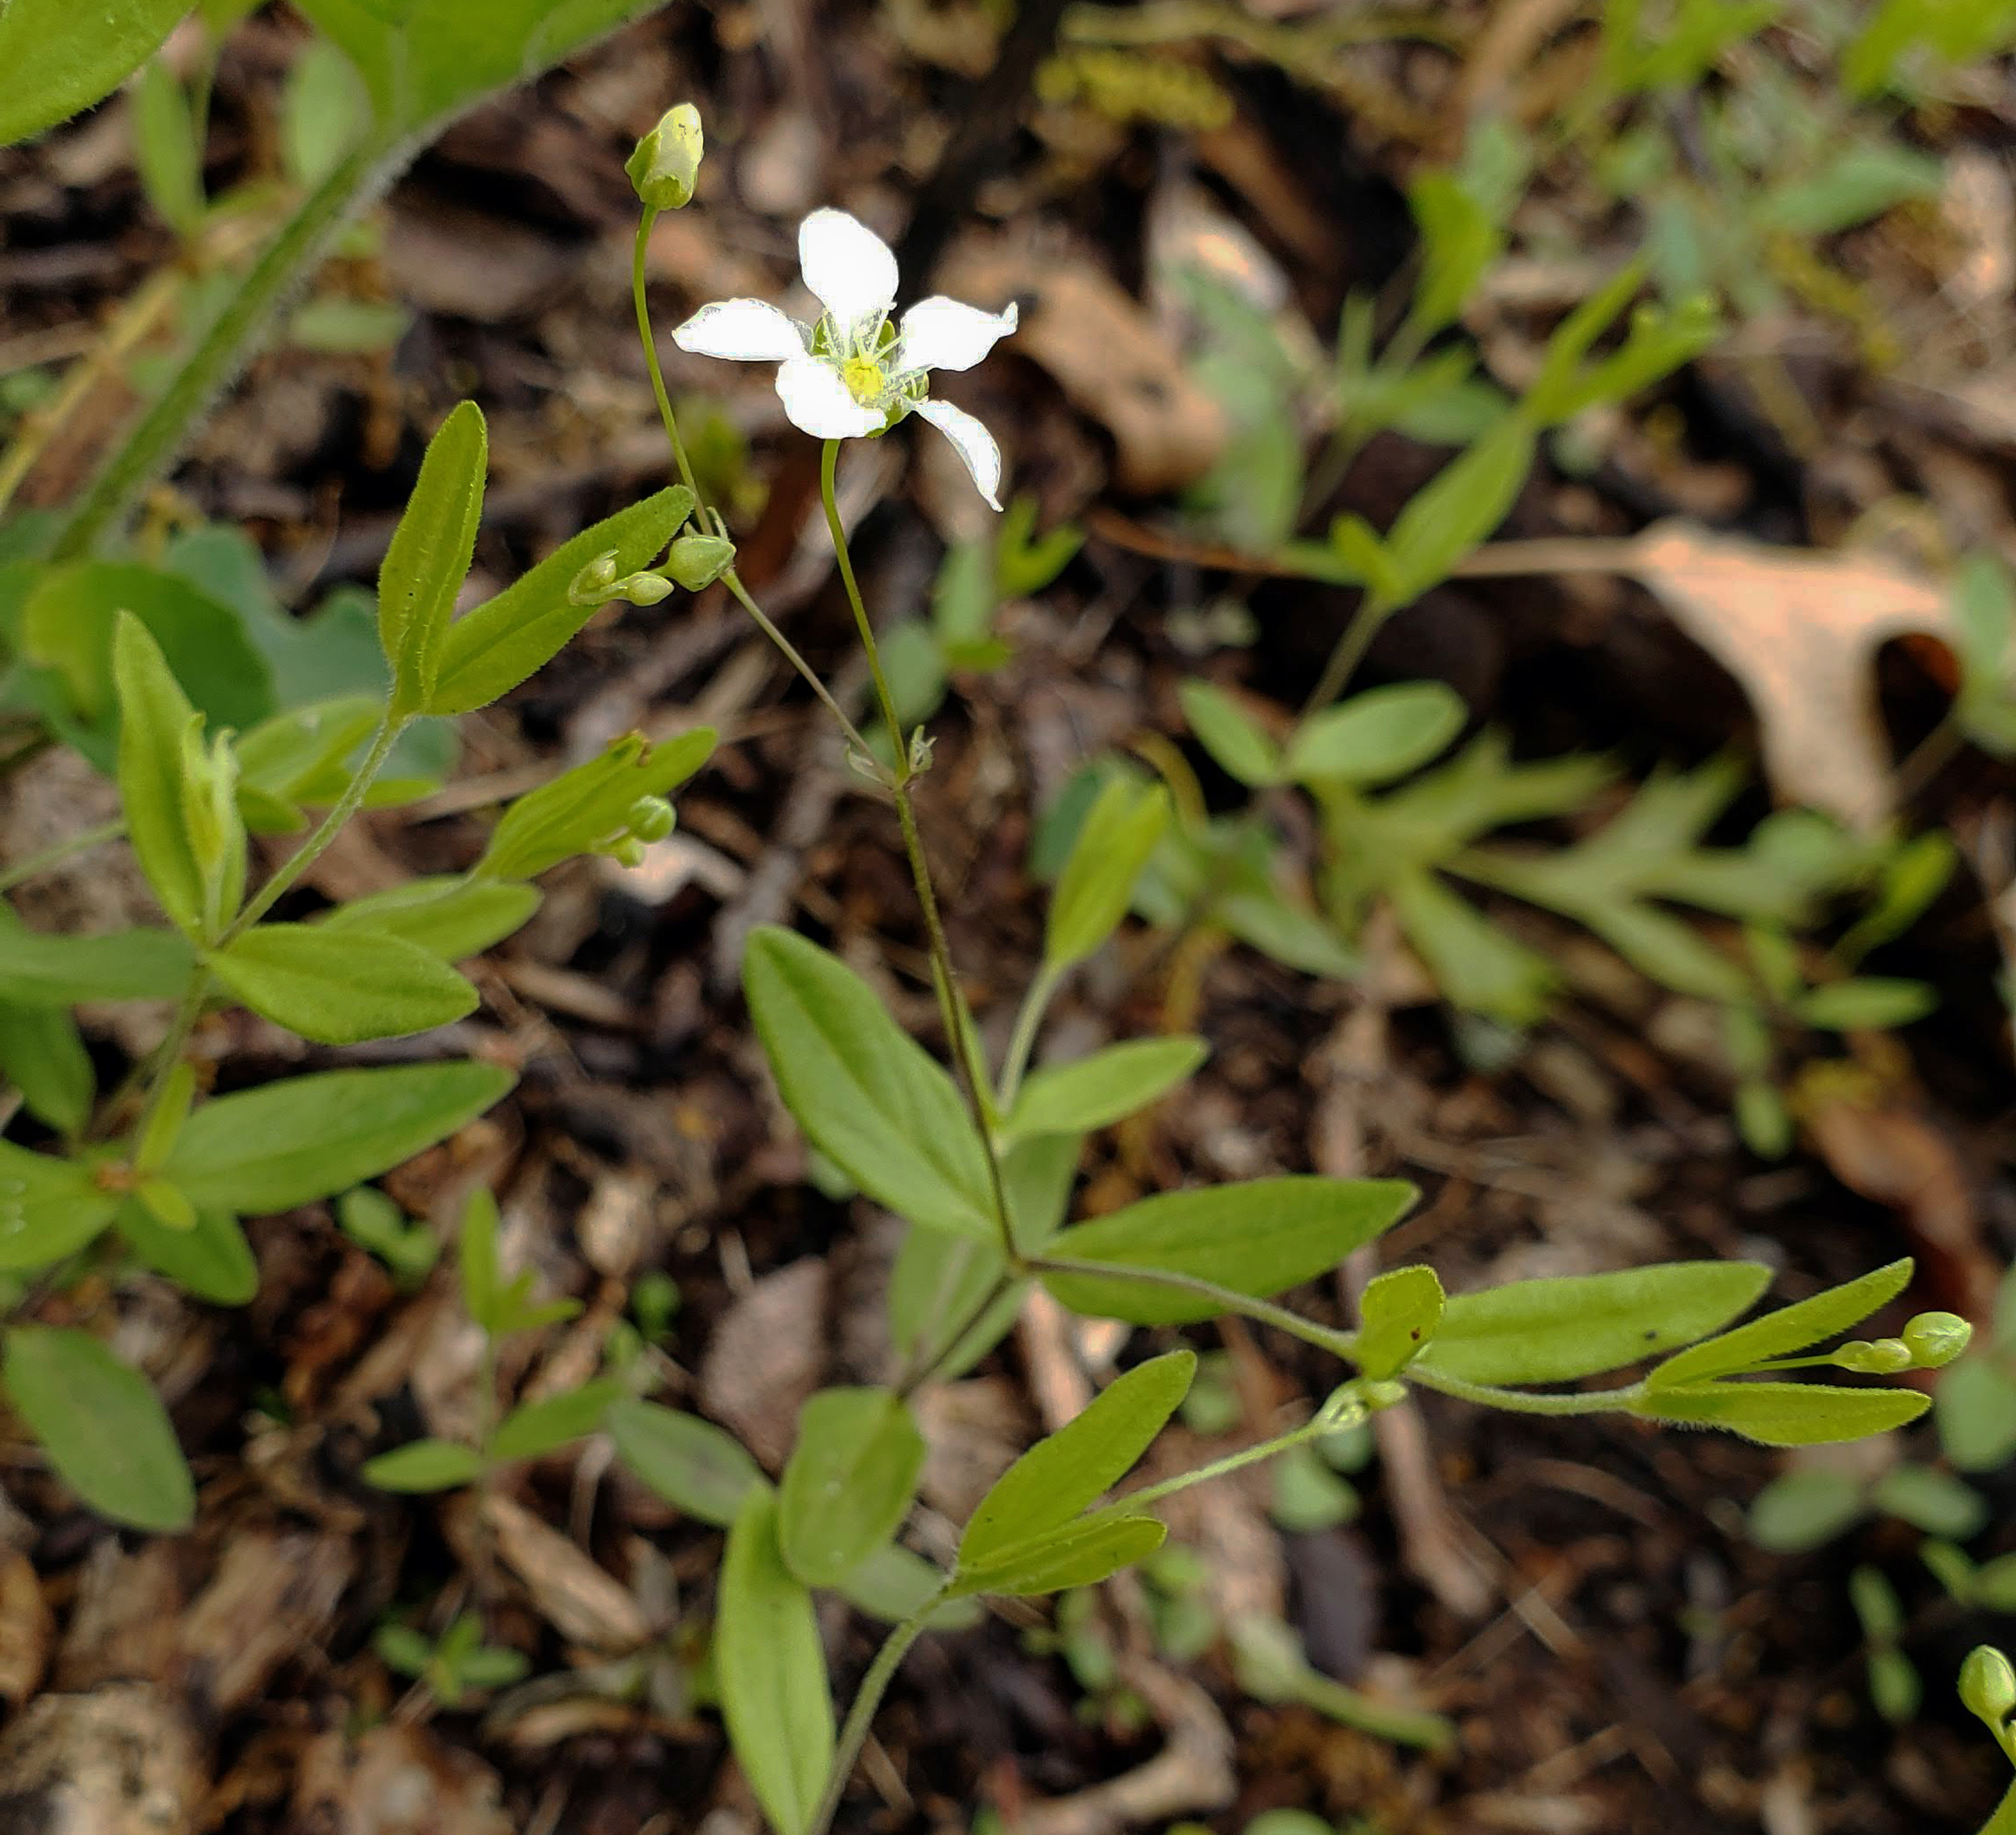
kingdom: Plantae
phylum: Tracheophyta
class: Magnoliopsida
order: Caryophyllales
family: Caryophyllaceae
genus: Moehringia
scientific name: Moehringia lateriflora
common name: Blunt-leaved sandwort
